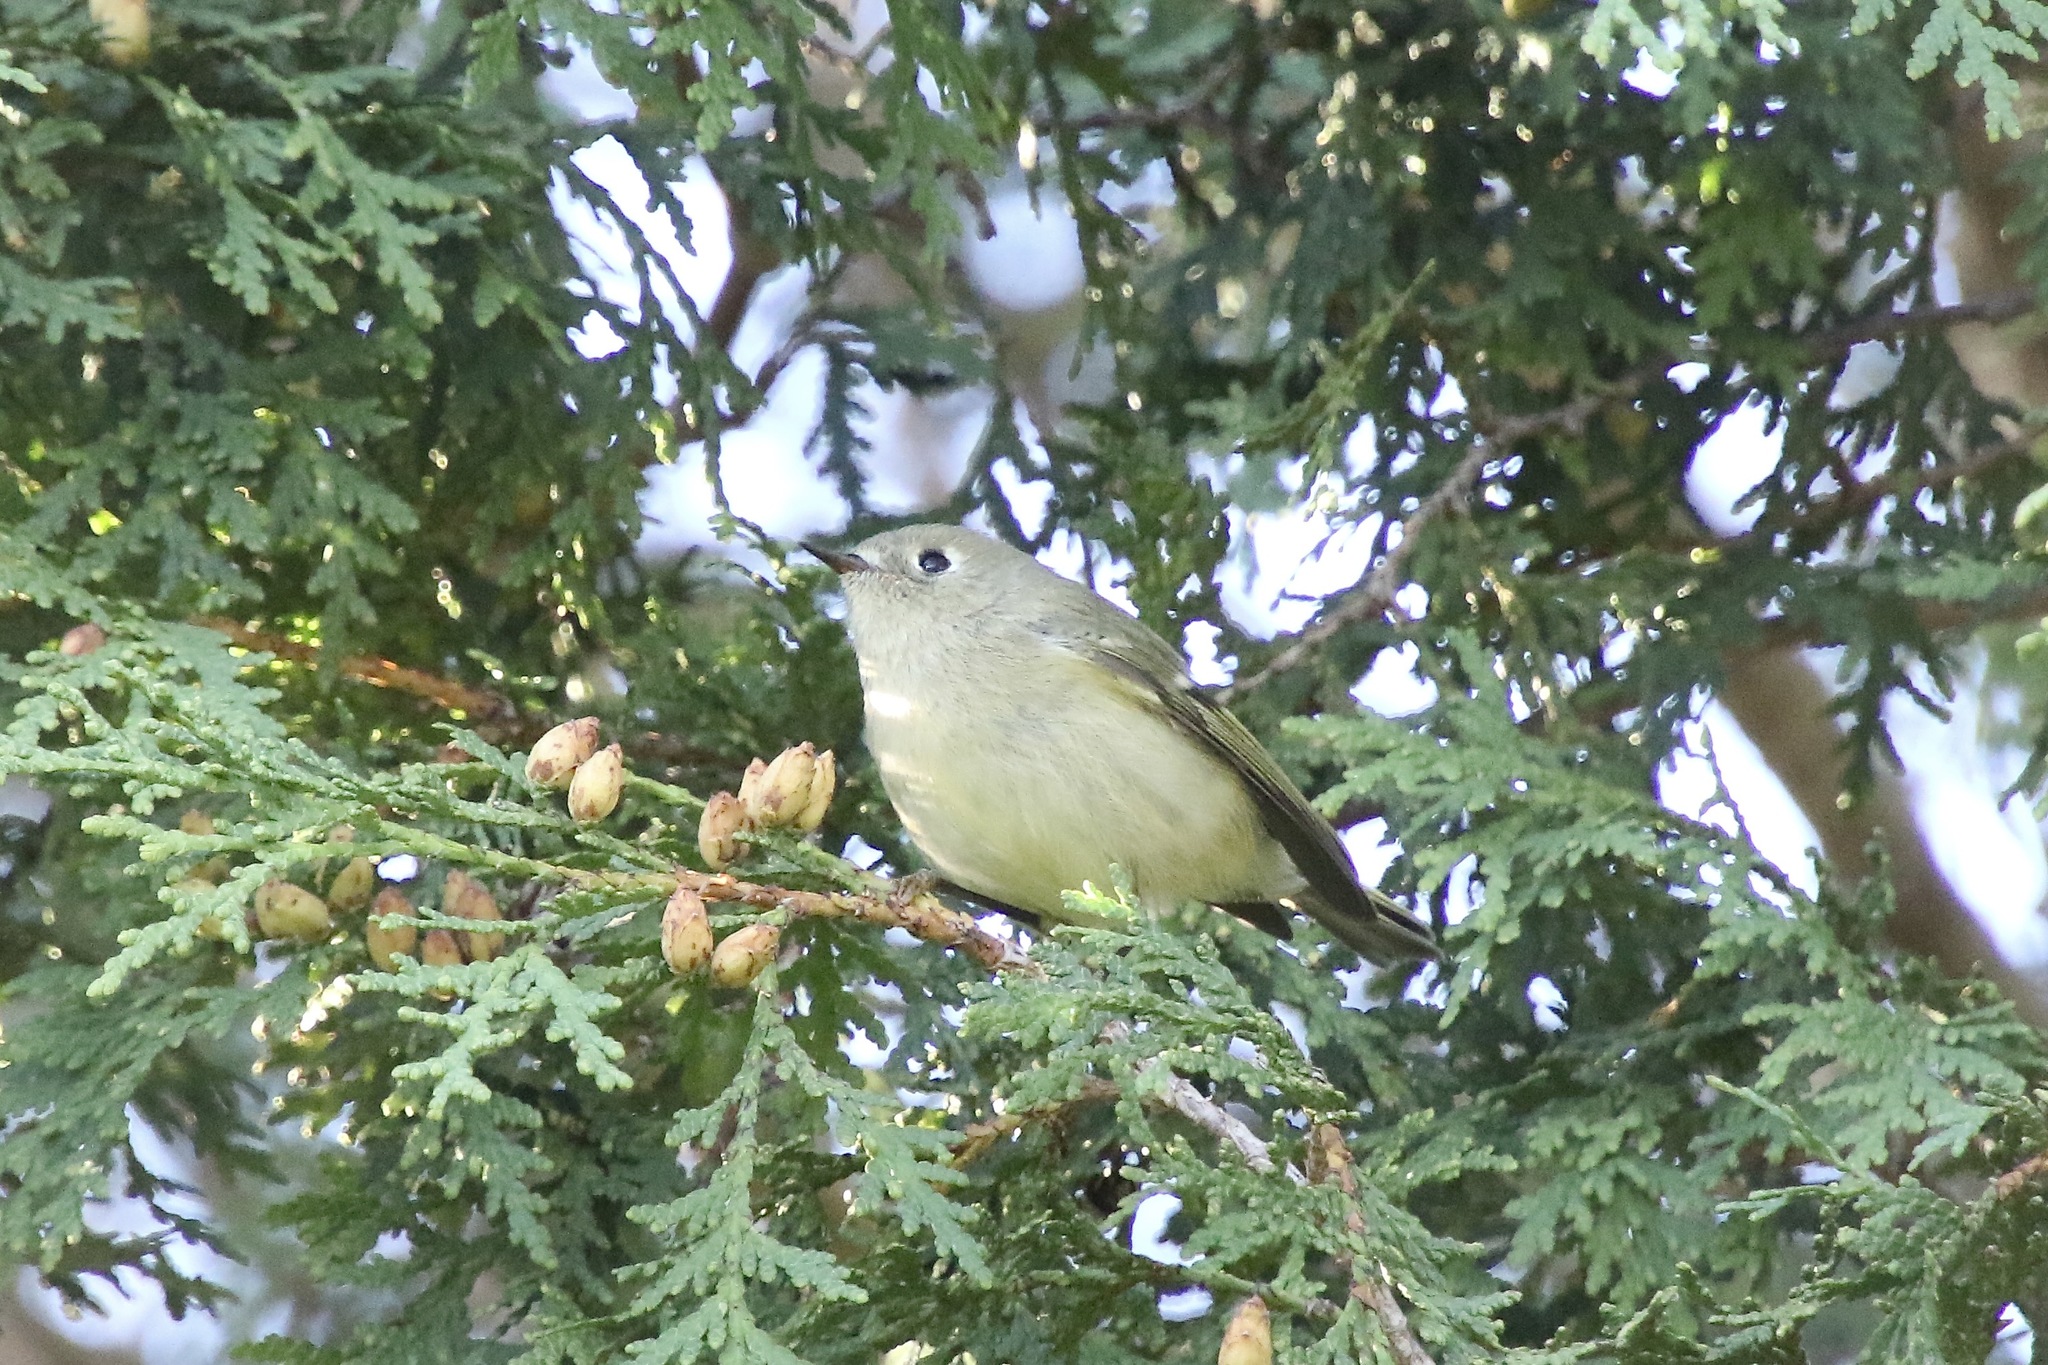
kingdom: Animalia
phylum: Chordata
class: Aves
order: Passeriformes
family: Regulidae
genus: Regulus
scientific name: Regulus calendula
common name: Ruby-crowned kinglet
